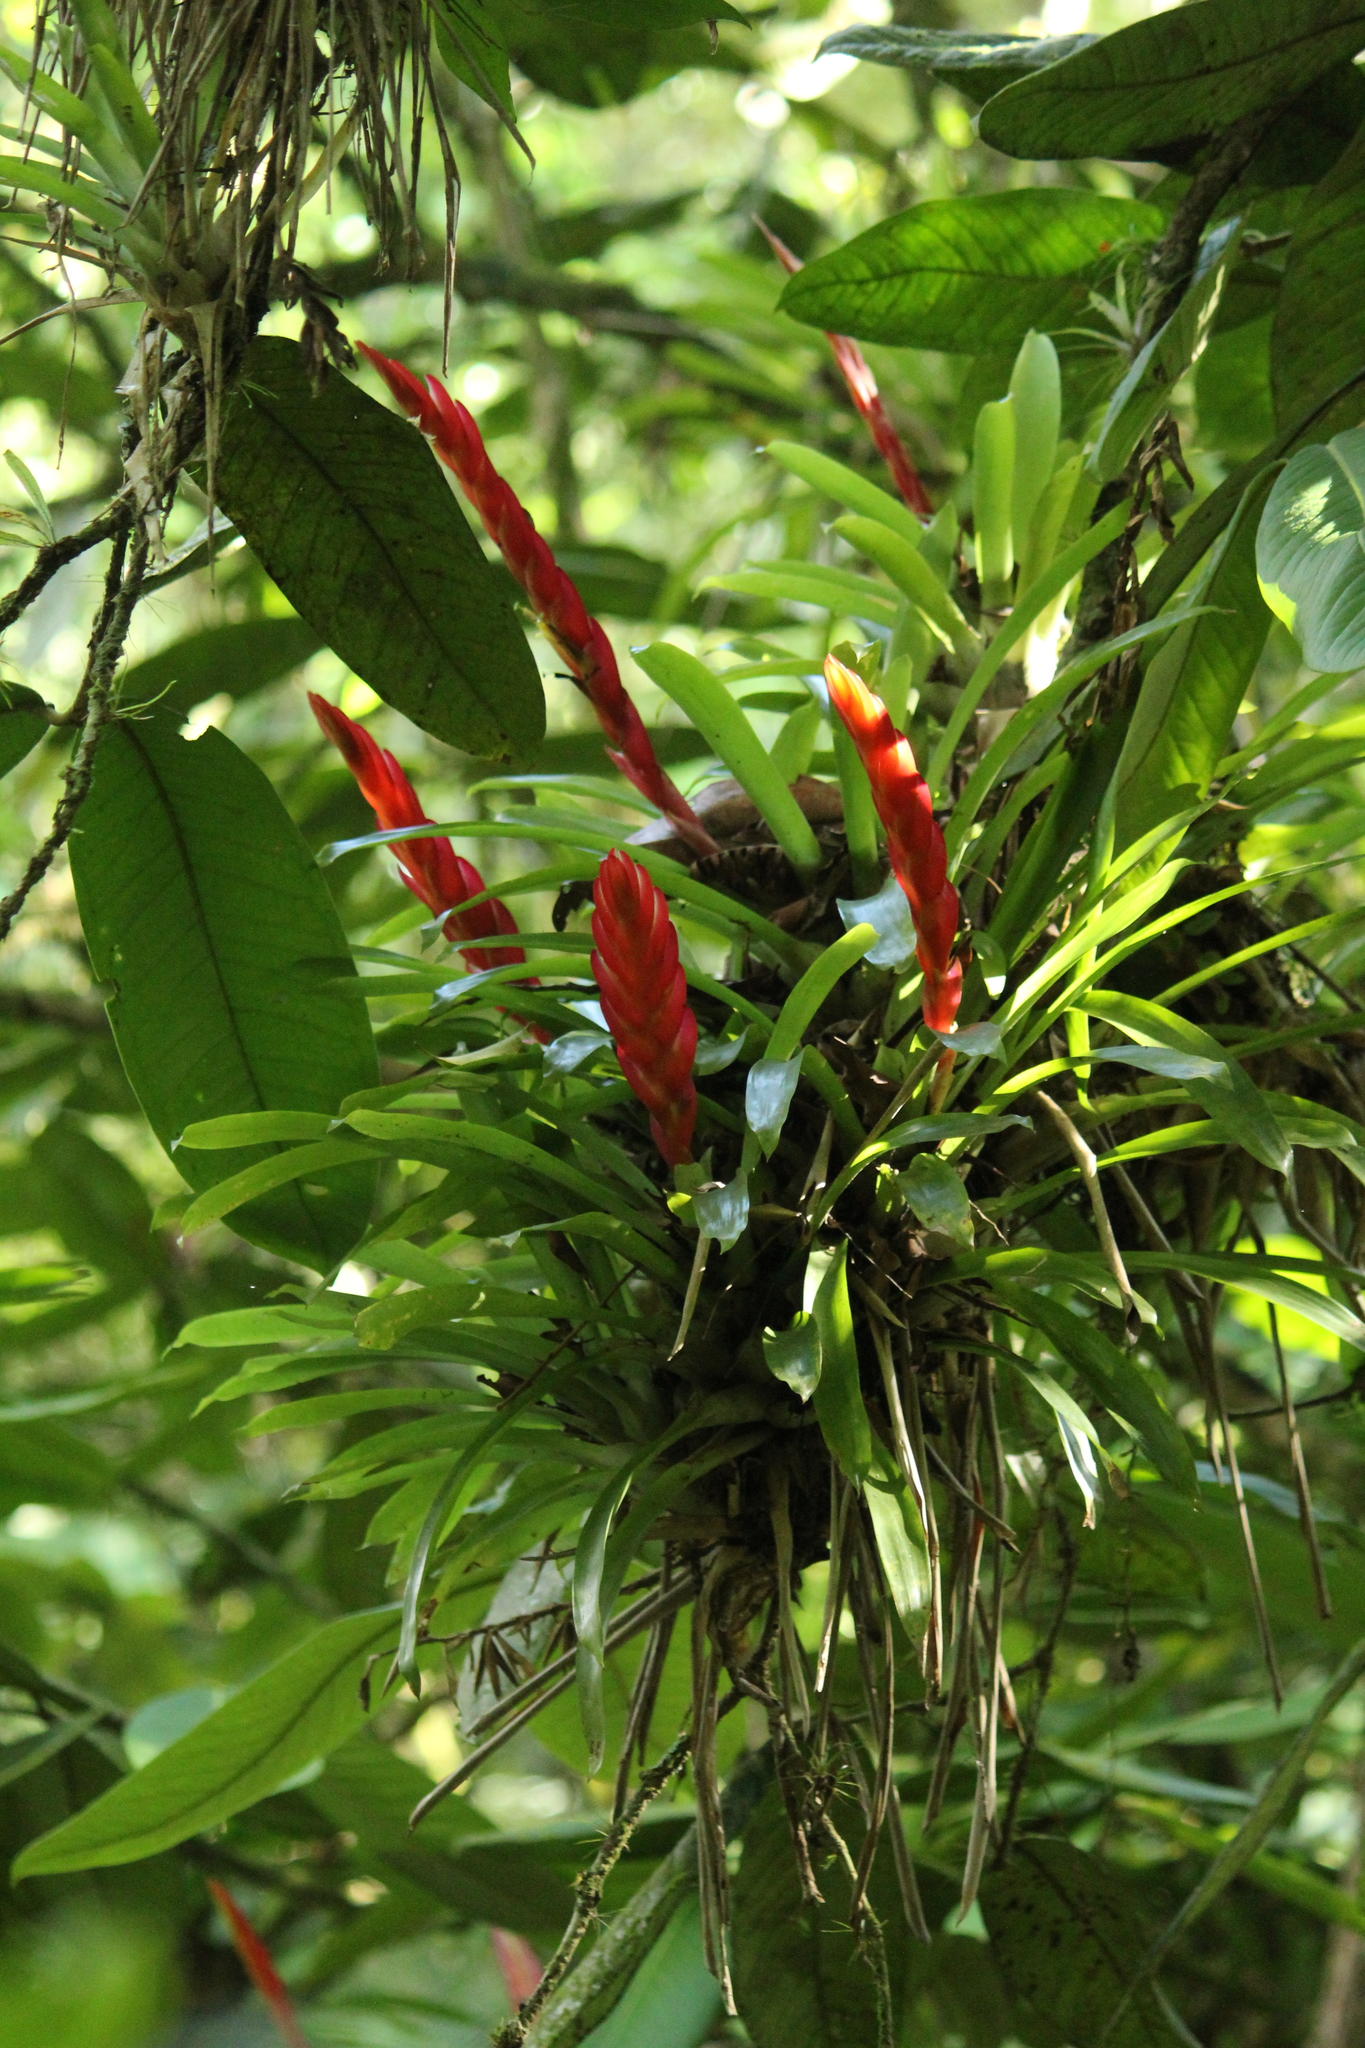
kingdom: Plantae
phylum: Tracheophyta
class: Liliopsida
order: Poales
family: Bromeliaceae
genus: Vriesea
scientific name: Vriesea incurvata
